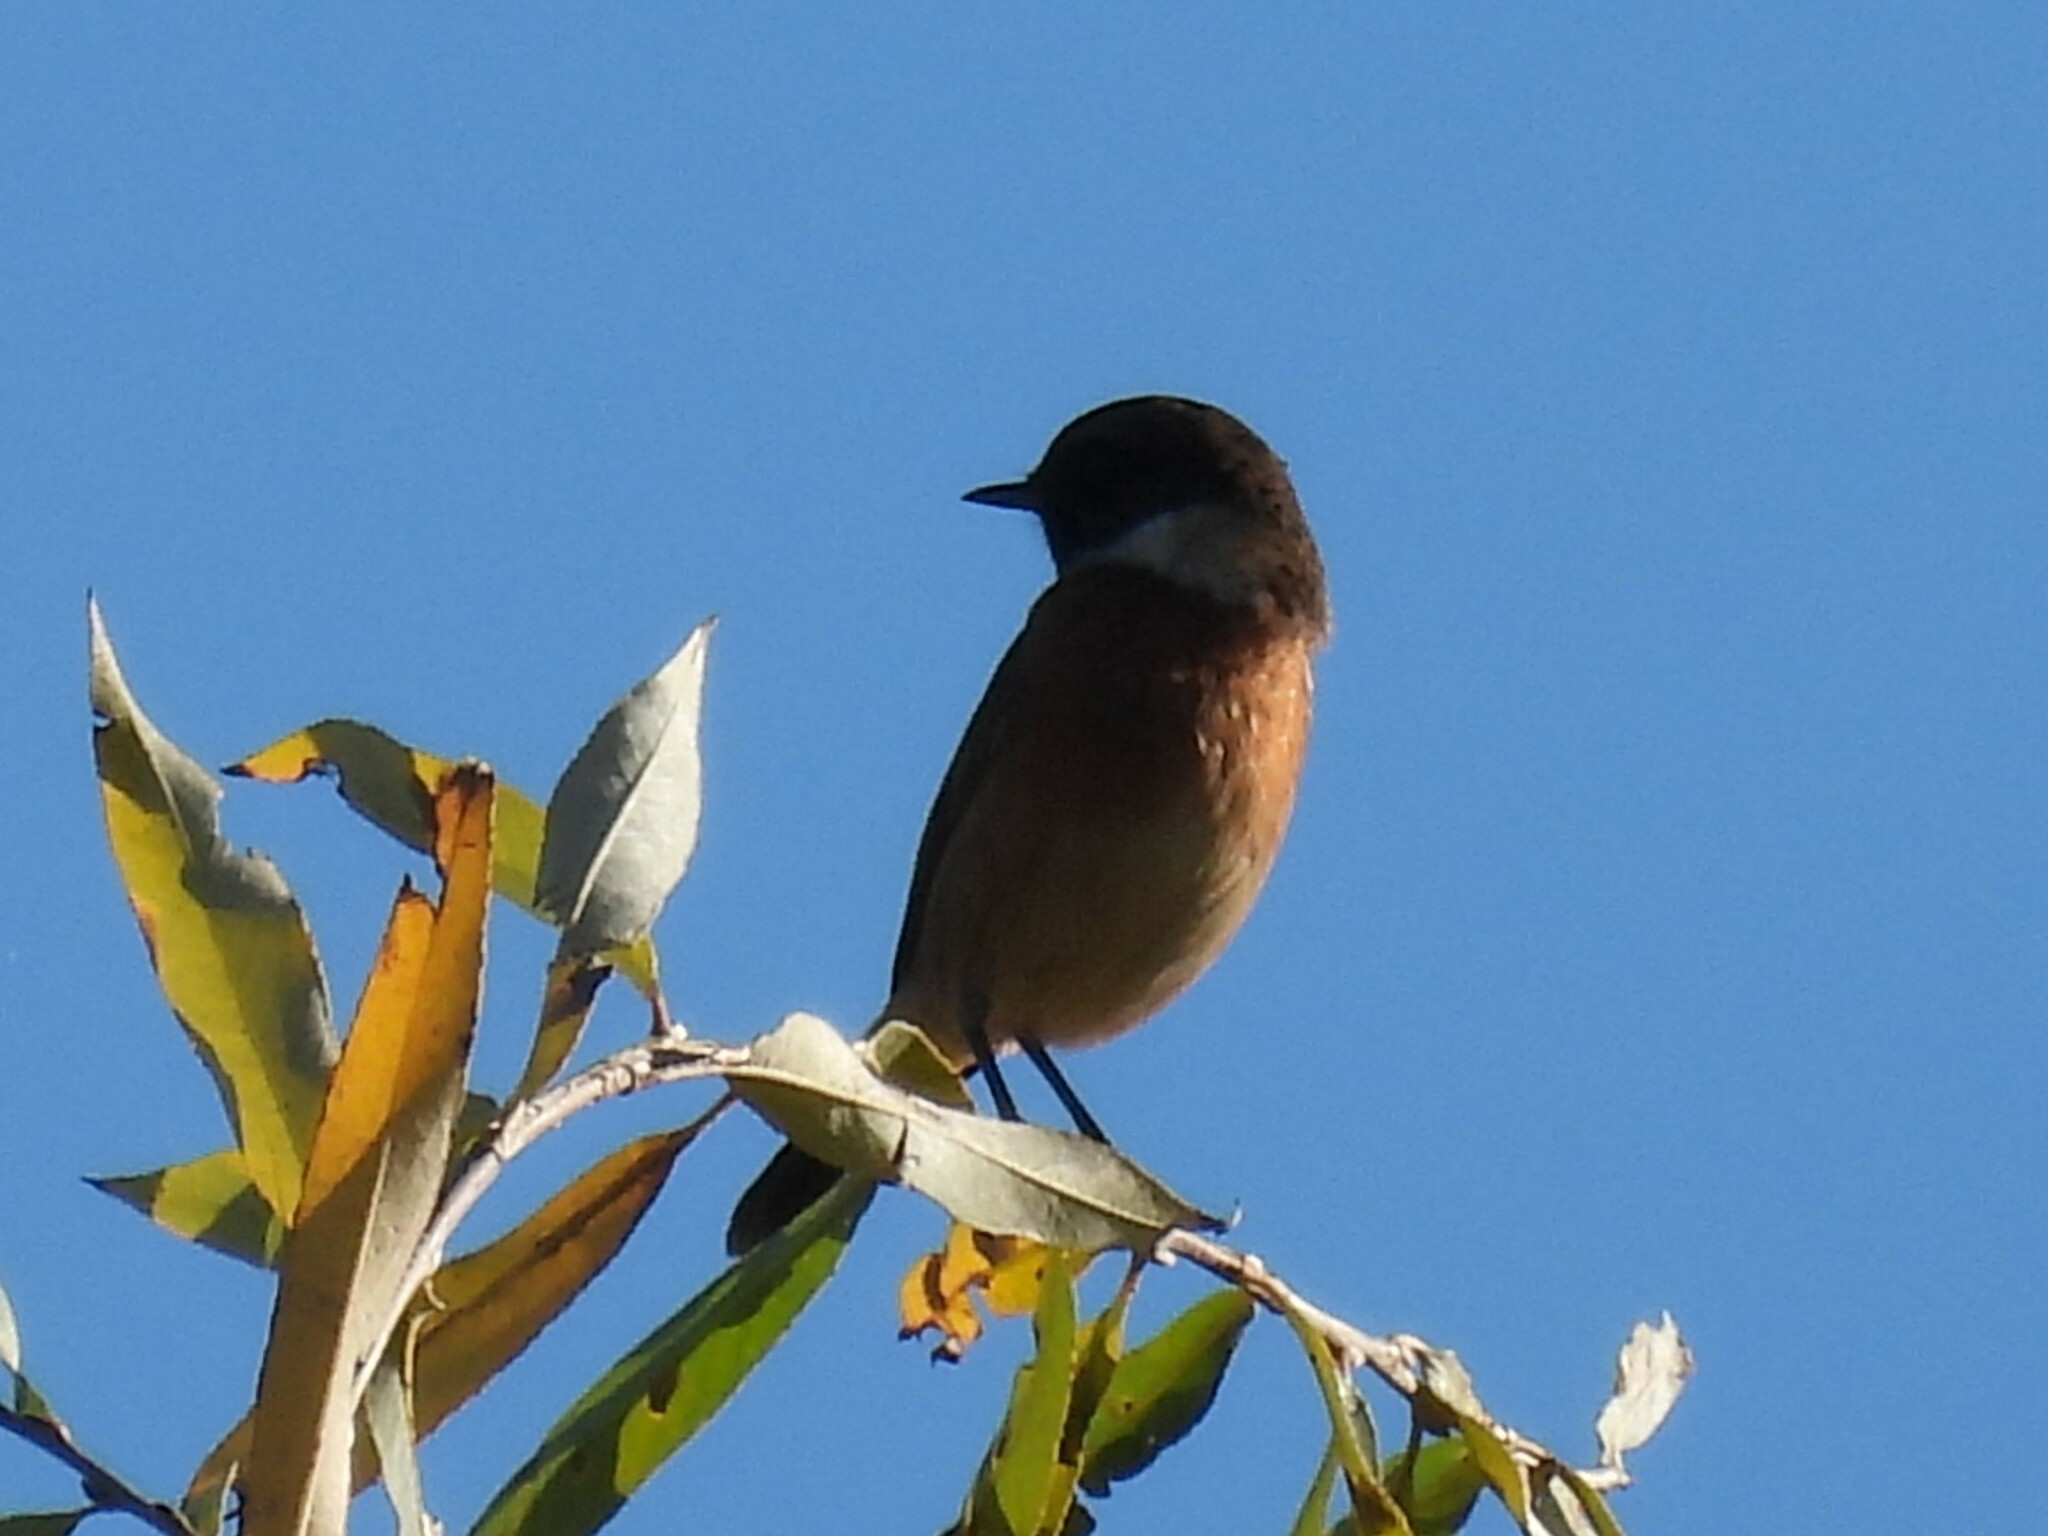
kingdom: Animalia
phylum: Chordata
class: Aves
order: Passeriformes
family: Muscicapidae
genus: Saxicola
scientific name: Saxicola rubicola
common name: European stonechat
